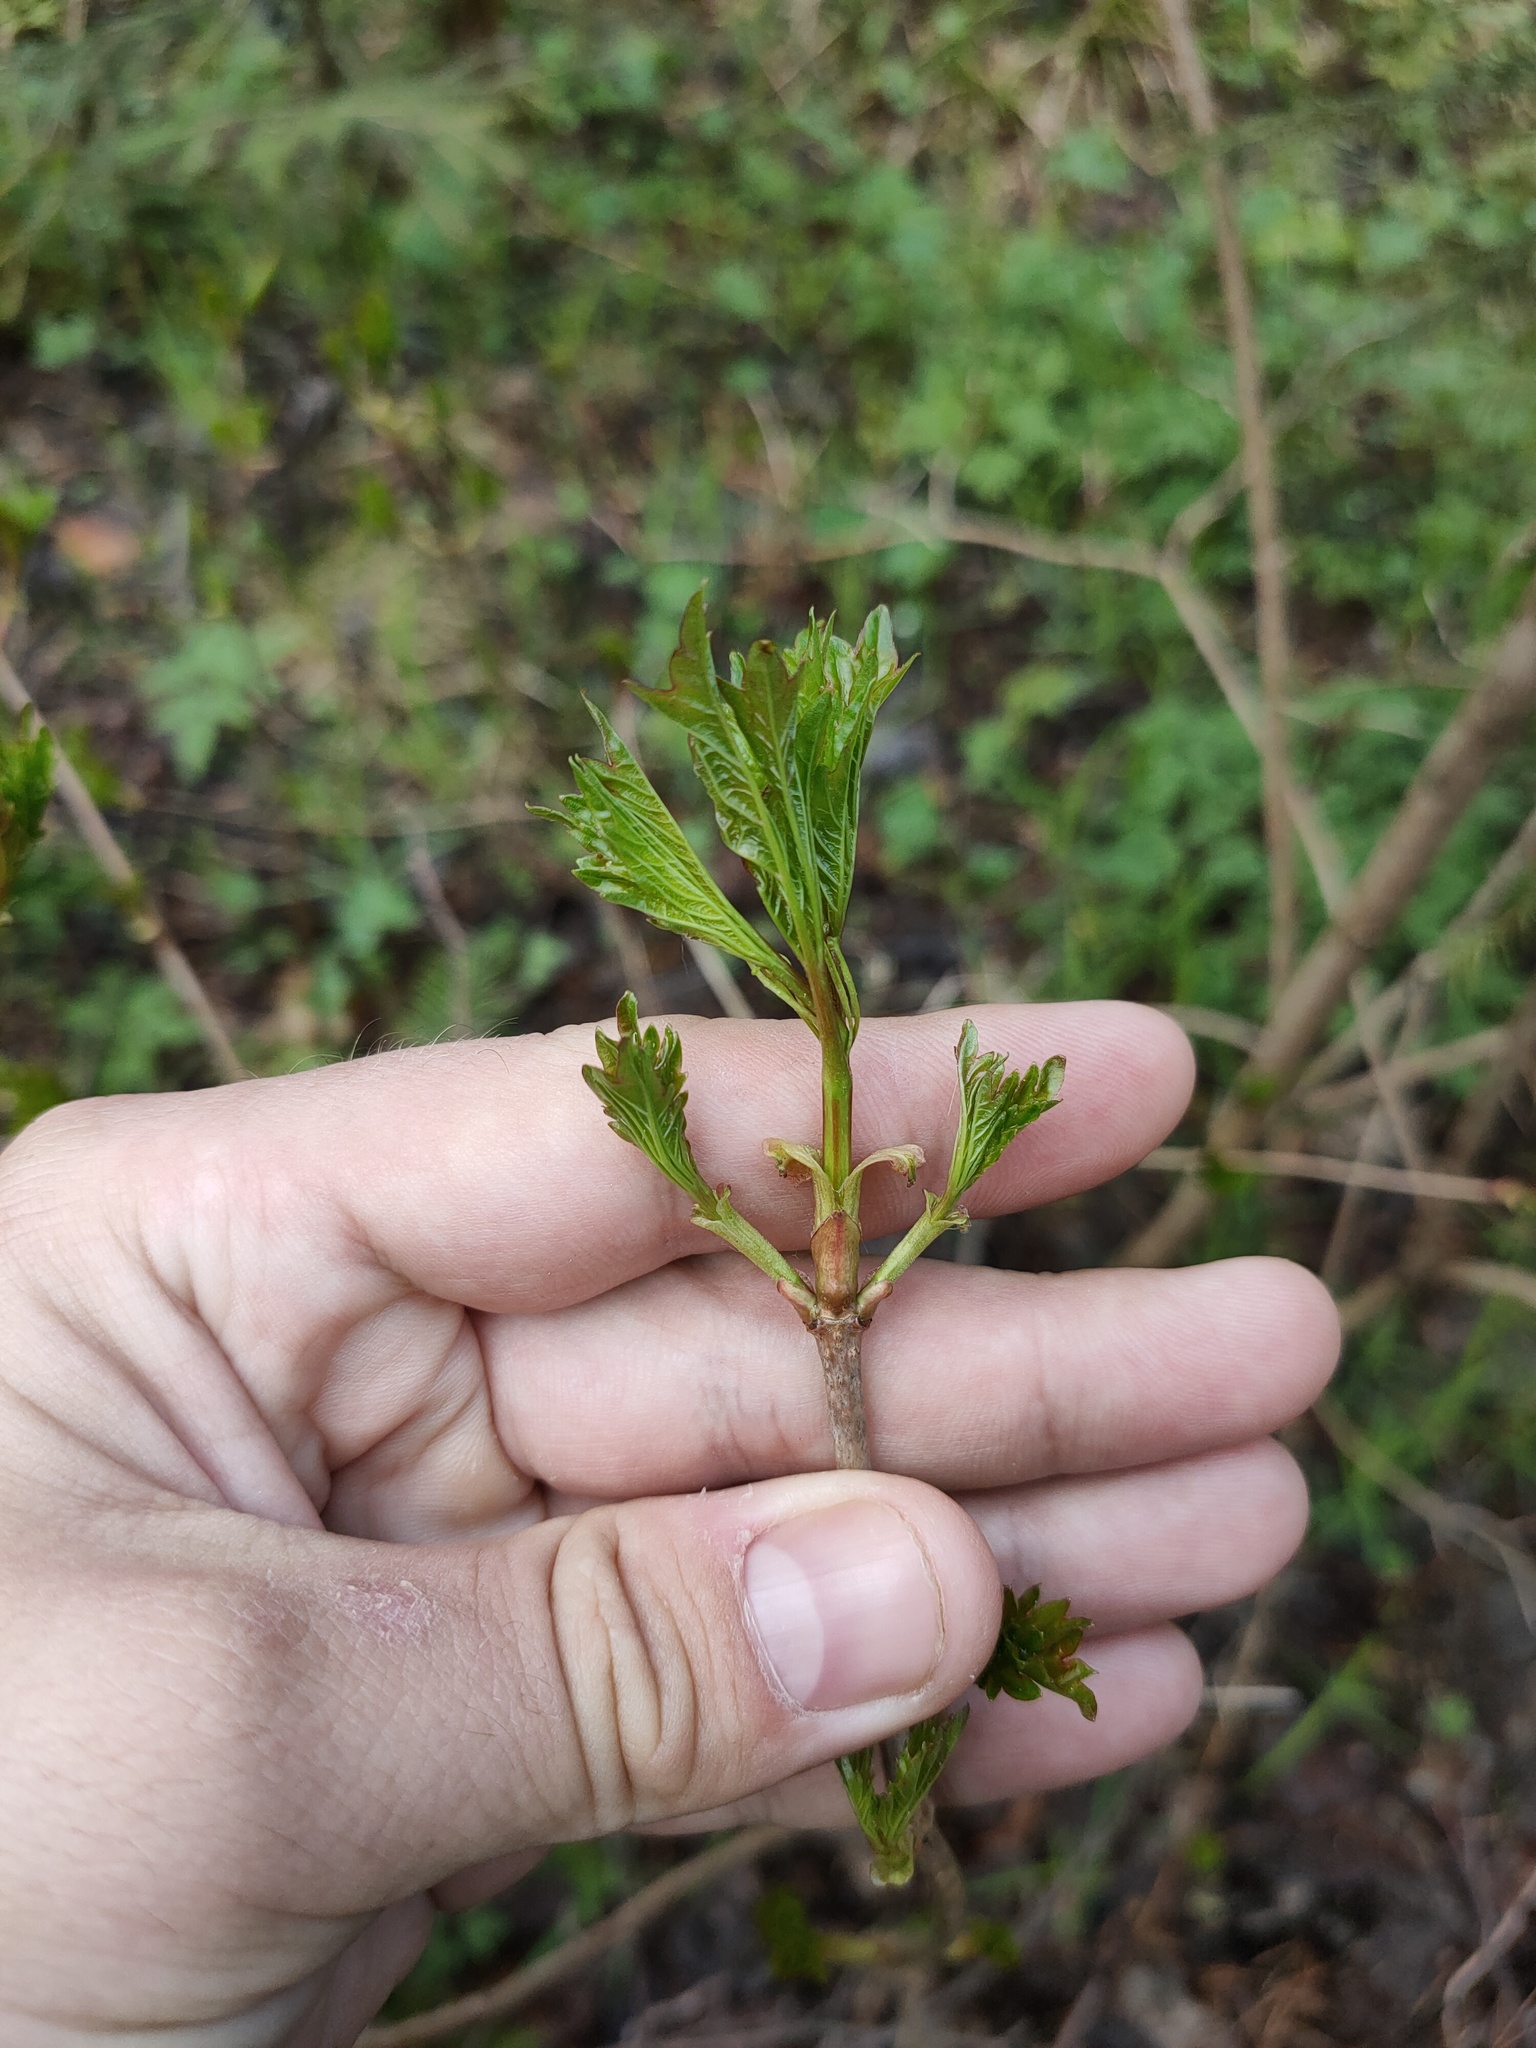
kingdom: Plantae
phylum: Tracheophyta
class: Magnoliopsida
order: Dipsacales
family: Viburnaceae
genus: Viburnum
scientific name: Viburnum opulus
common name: Guelder-rose
